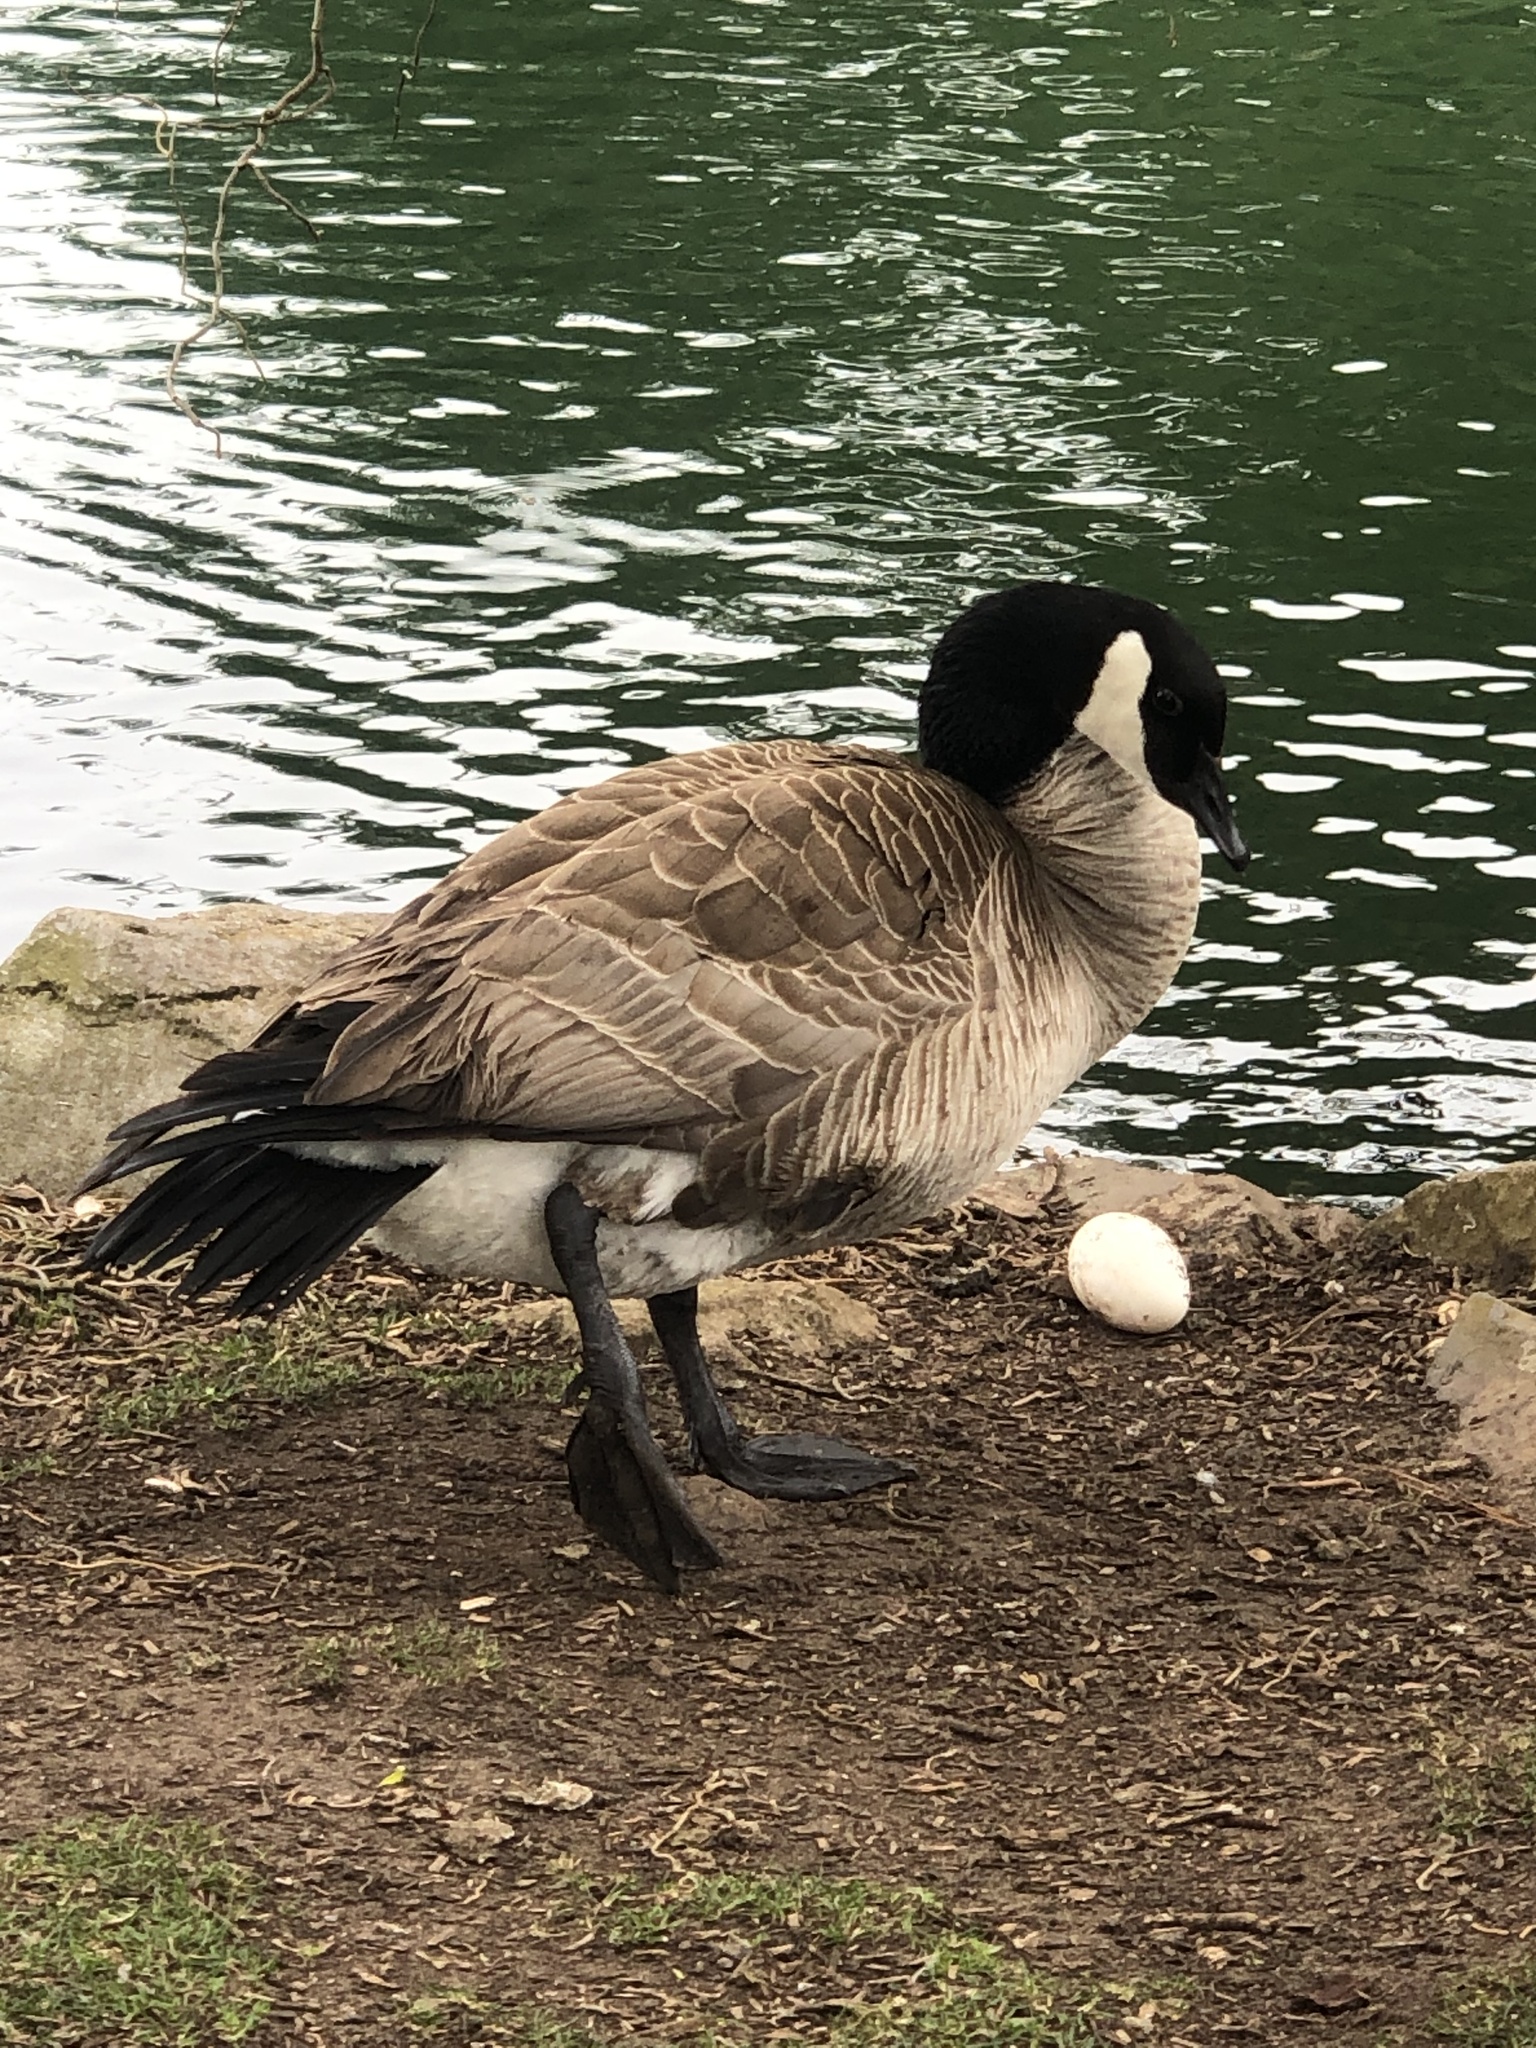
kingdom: Animalia
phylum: Chordata
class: Aves
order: Anseriformes
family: Anatidae
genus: Branta
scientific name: Branta canadensis
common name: Canada goose
